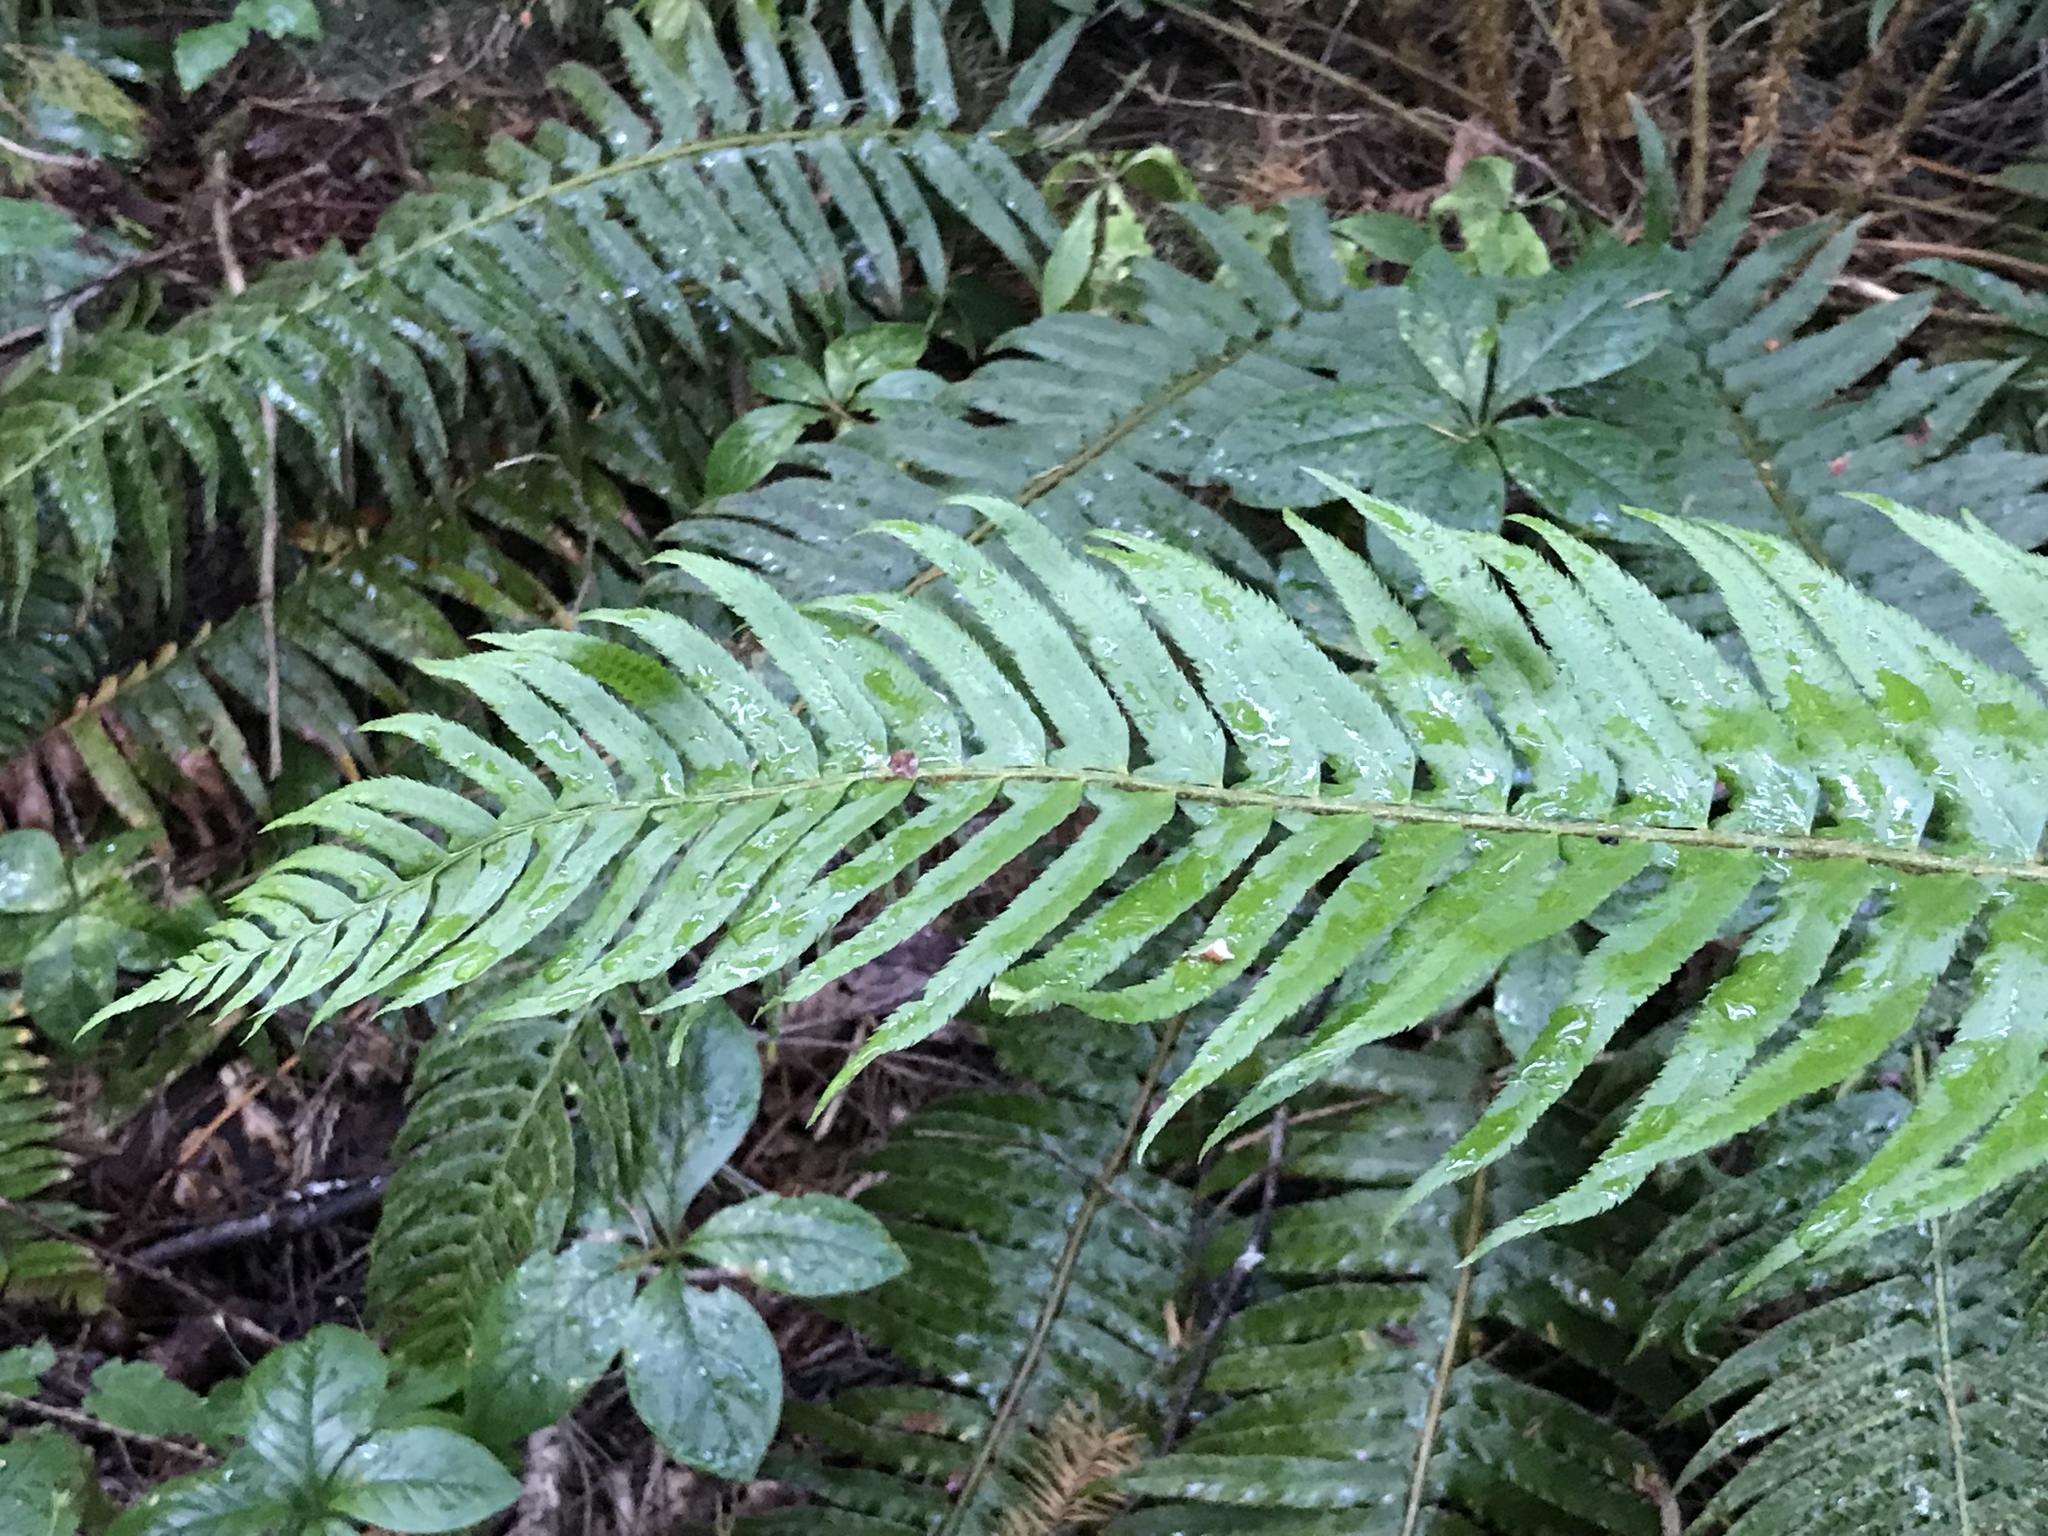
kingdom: Plantae
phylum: Tracheophyta
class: Polypodiopsida
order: Polypodiales
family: Dryopteridaceae
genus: Polystichum
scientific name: Polystichum munitum
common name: Western sword-fern
